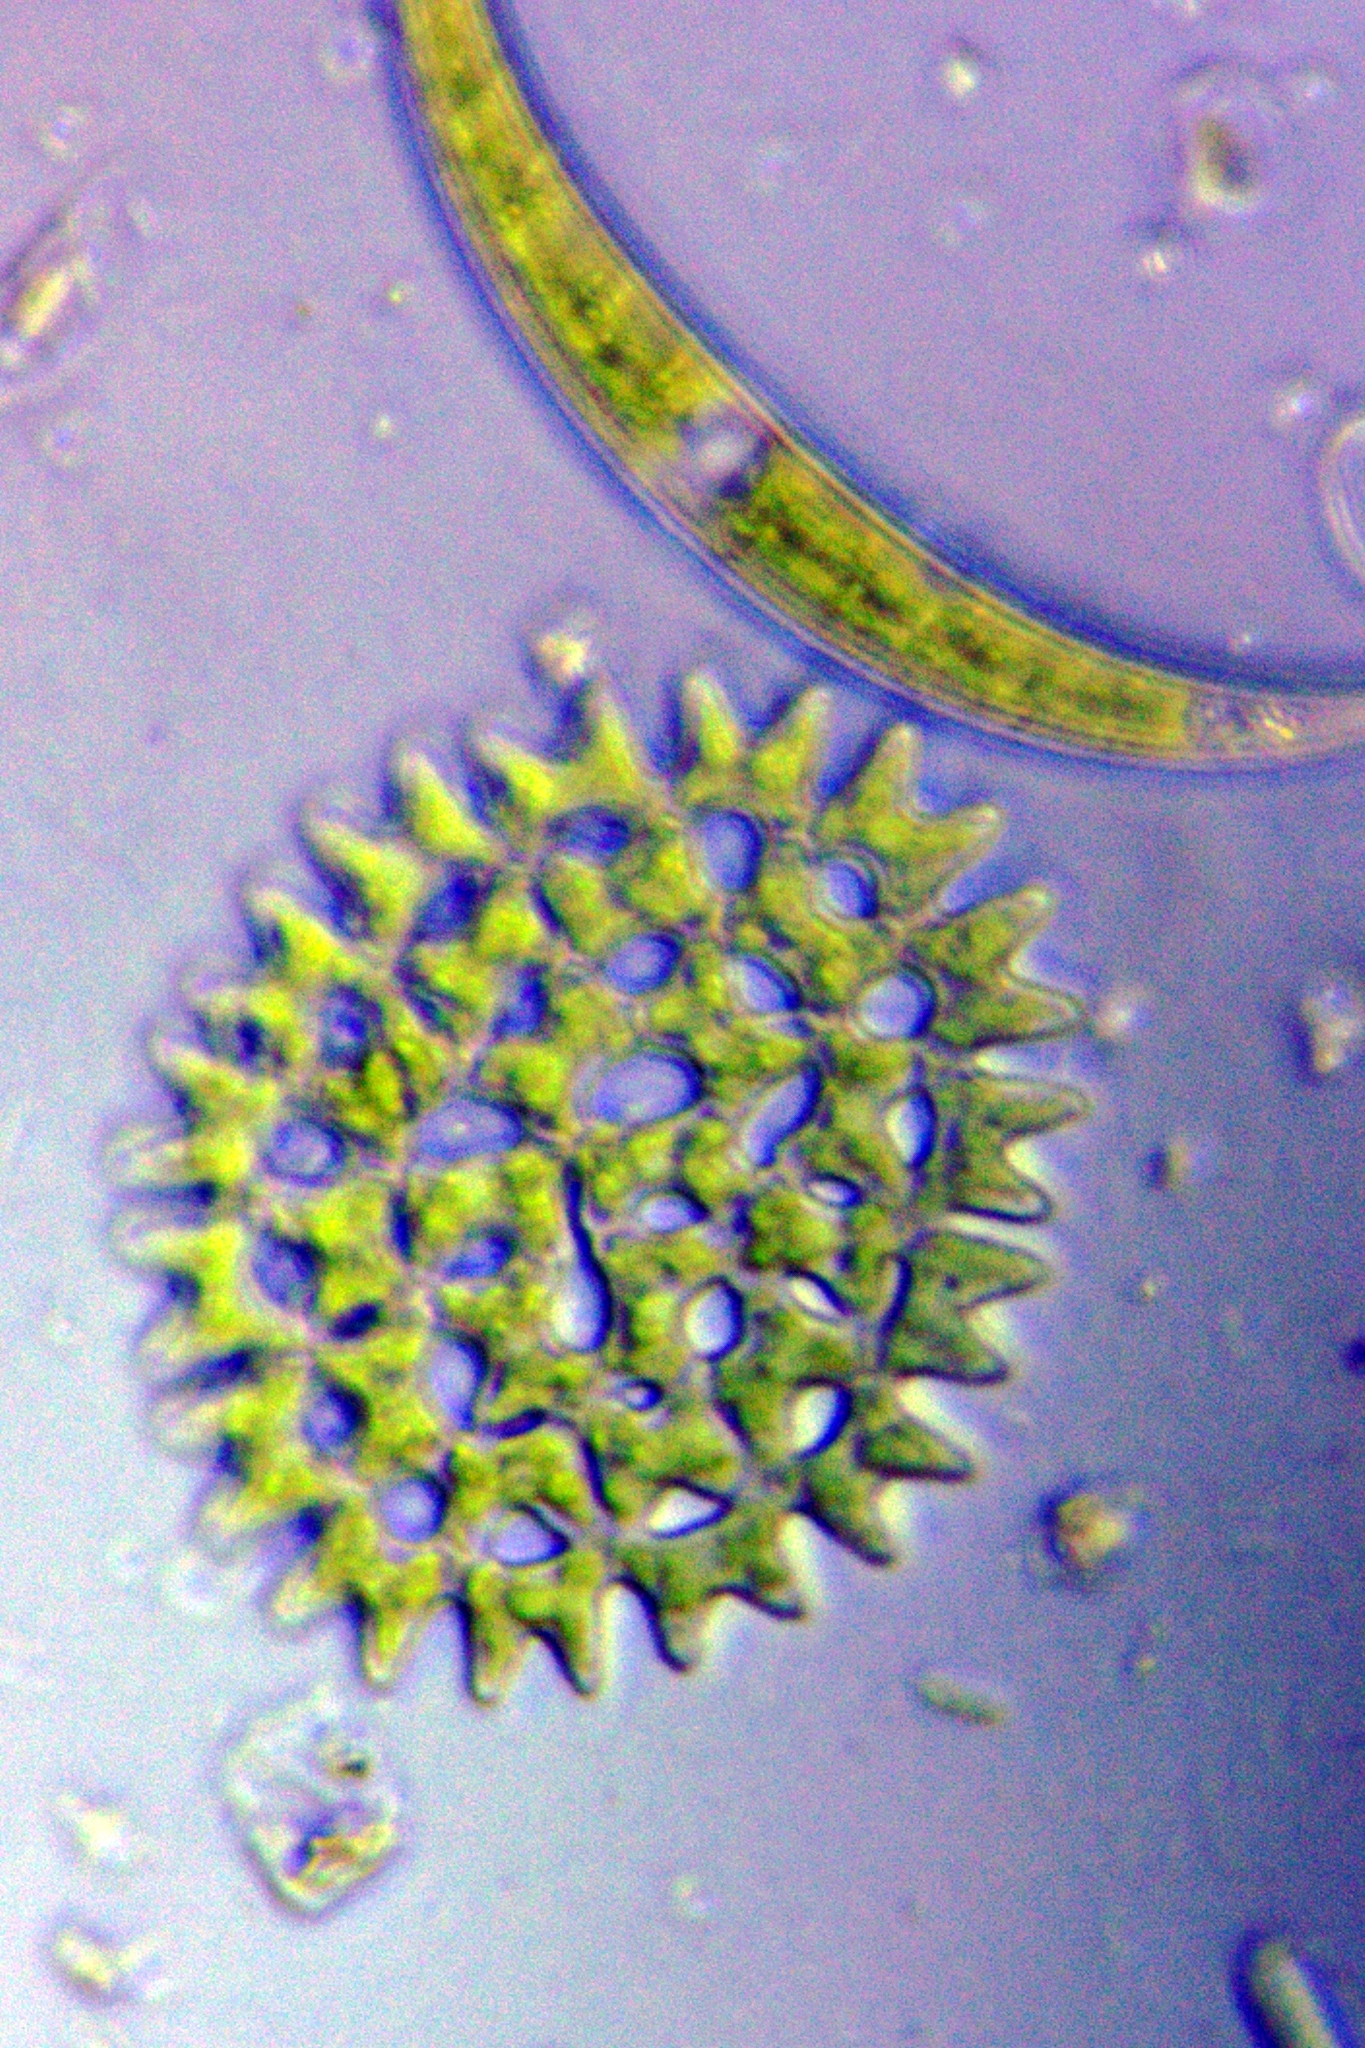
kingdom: Plantae
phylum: Chlorophyta
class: Chlorophyceae
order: Sphaeropleales
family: Hydrodictyaceae
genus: Pediastrum
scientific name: Pediastrum duplex
